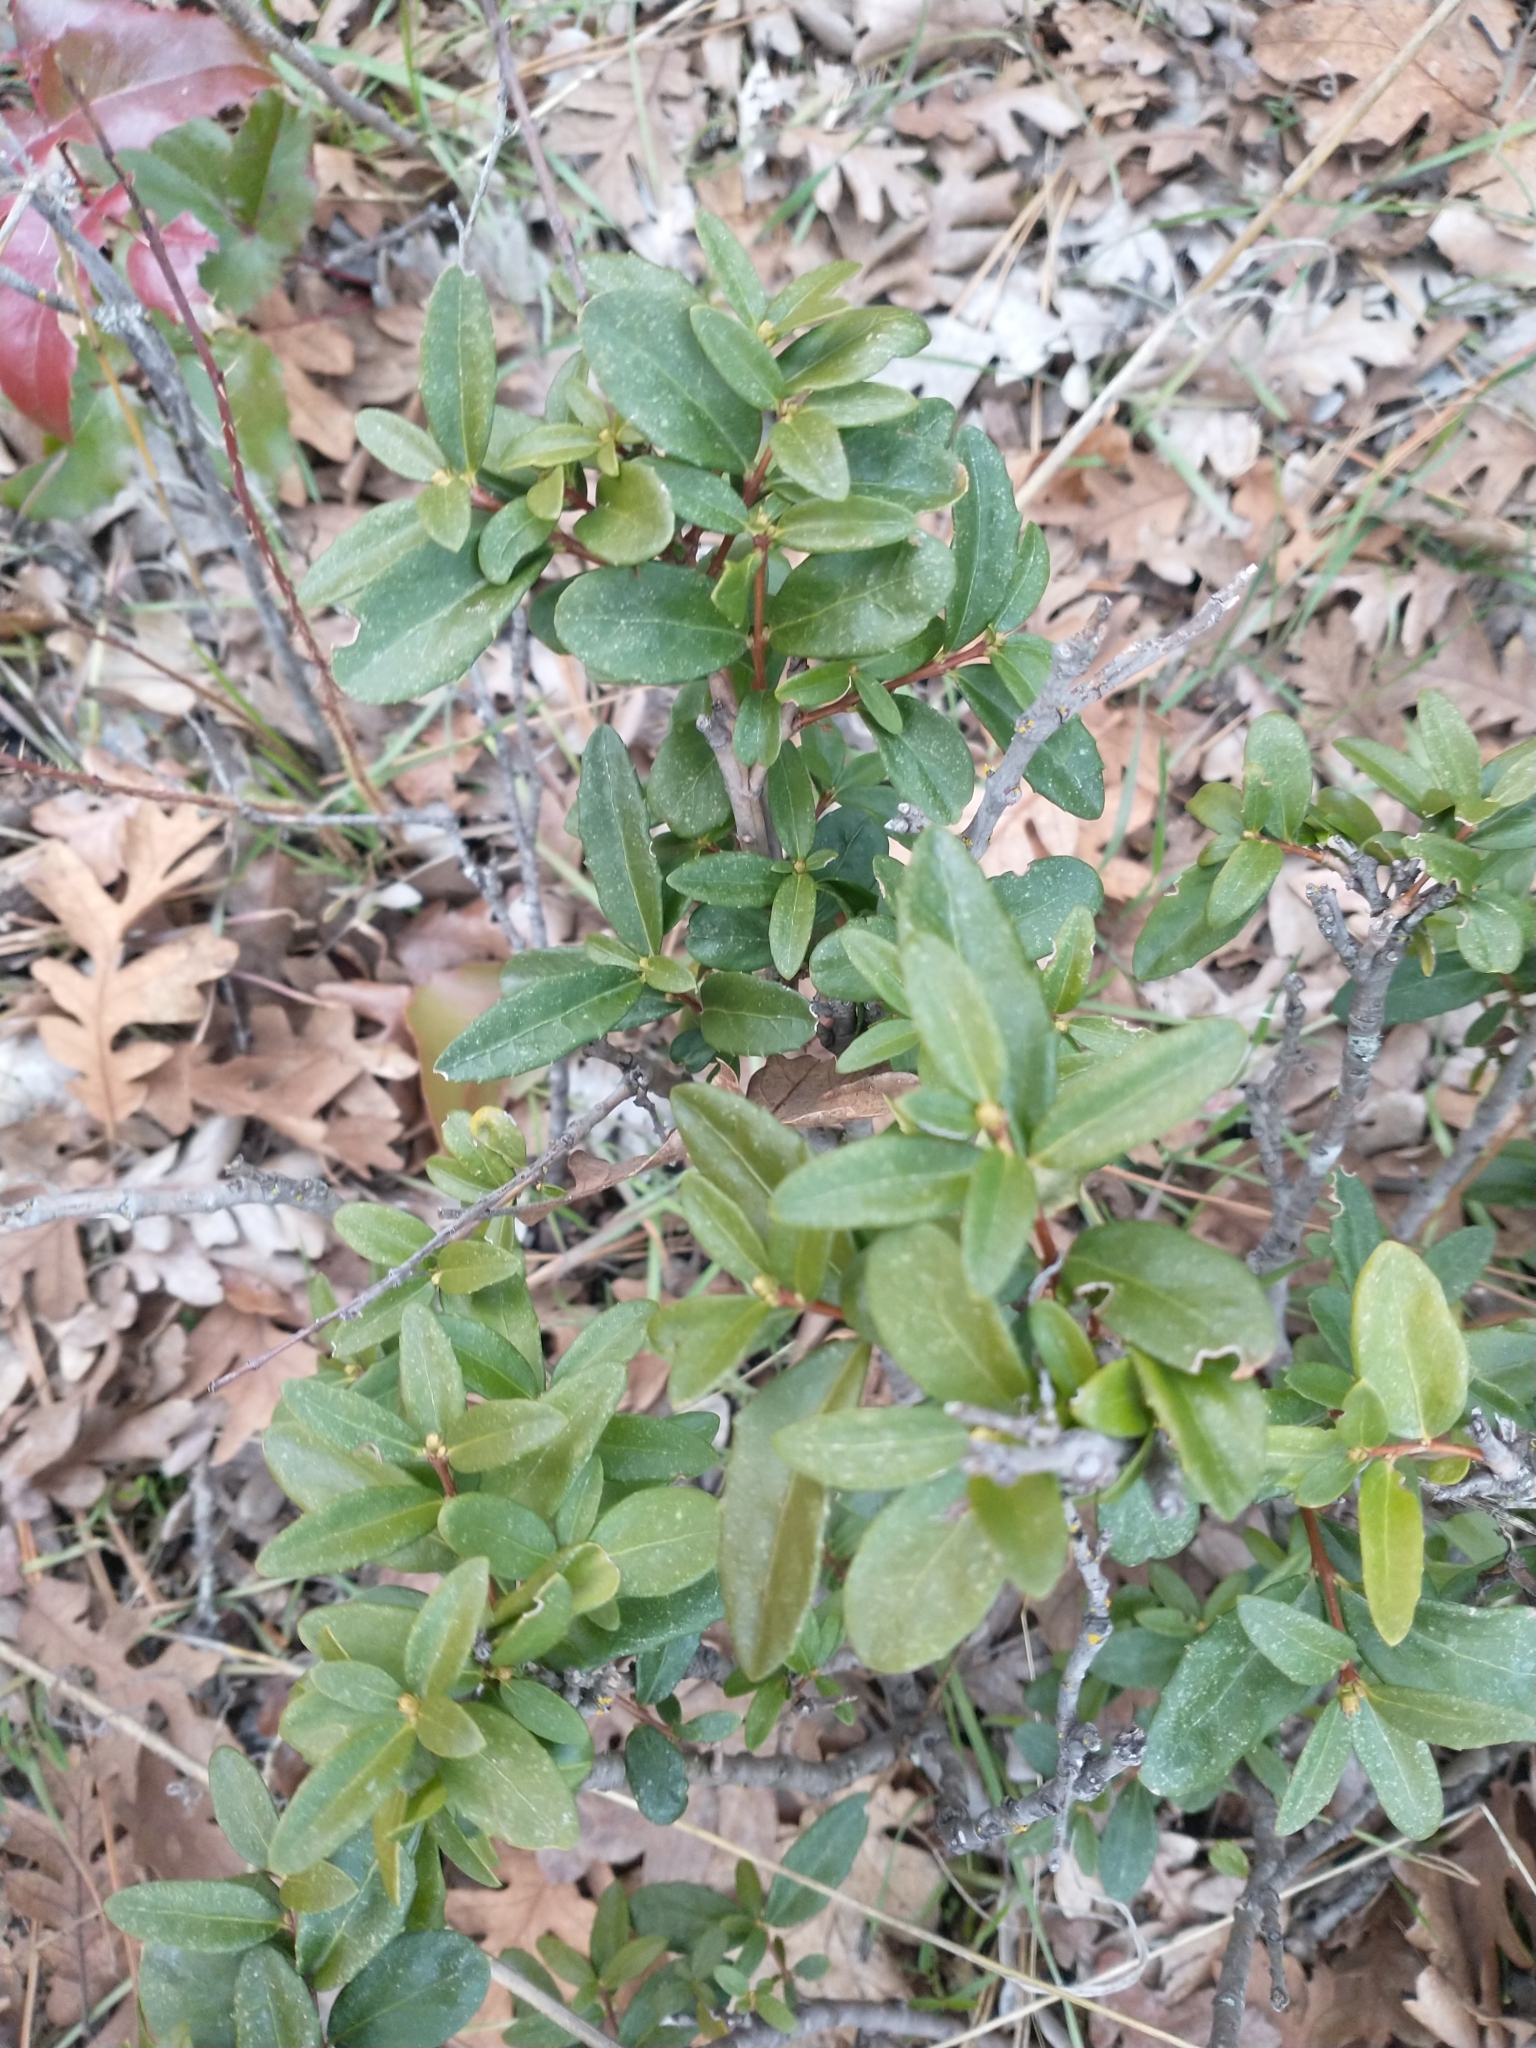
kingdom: Plantae
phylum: Tracheophyta
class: Magnoliopsida
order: Celastrales
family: Celastraceae
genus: Paxistima
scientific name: Paxistima myrsinites
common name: Mountain-lover
